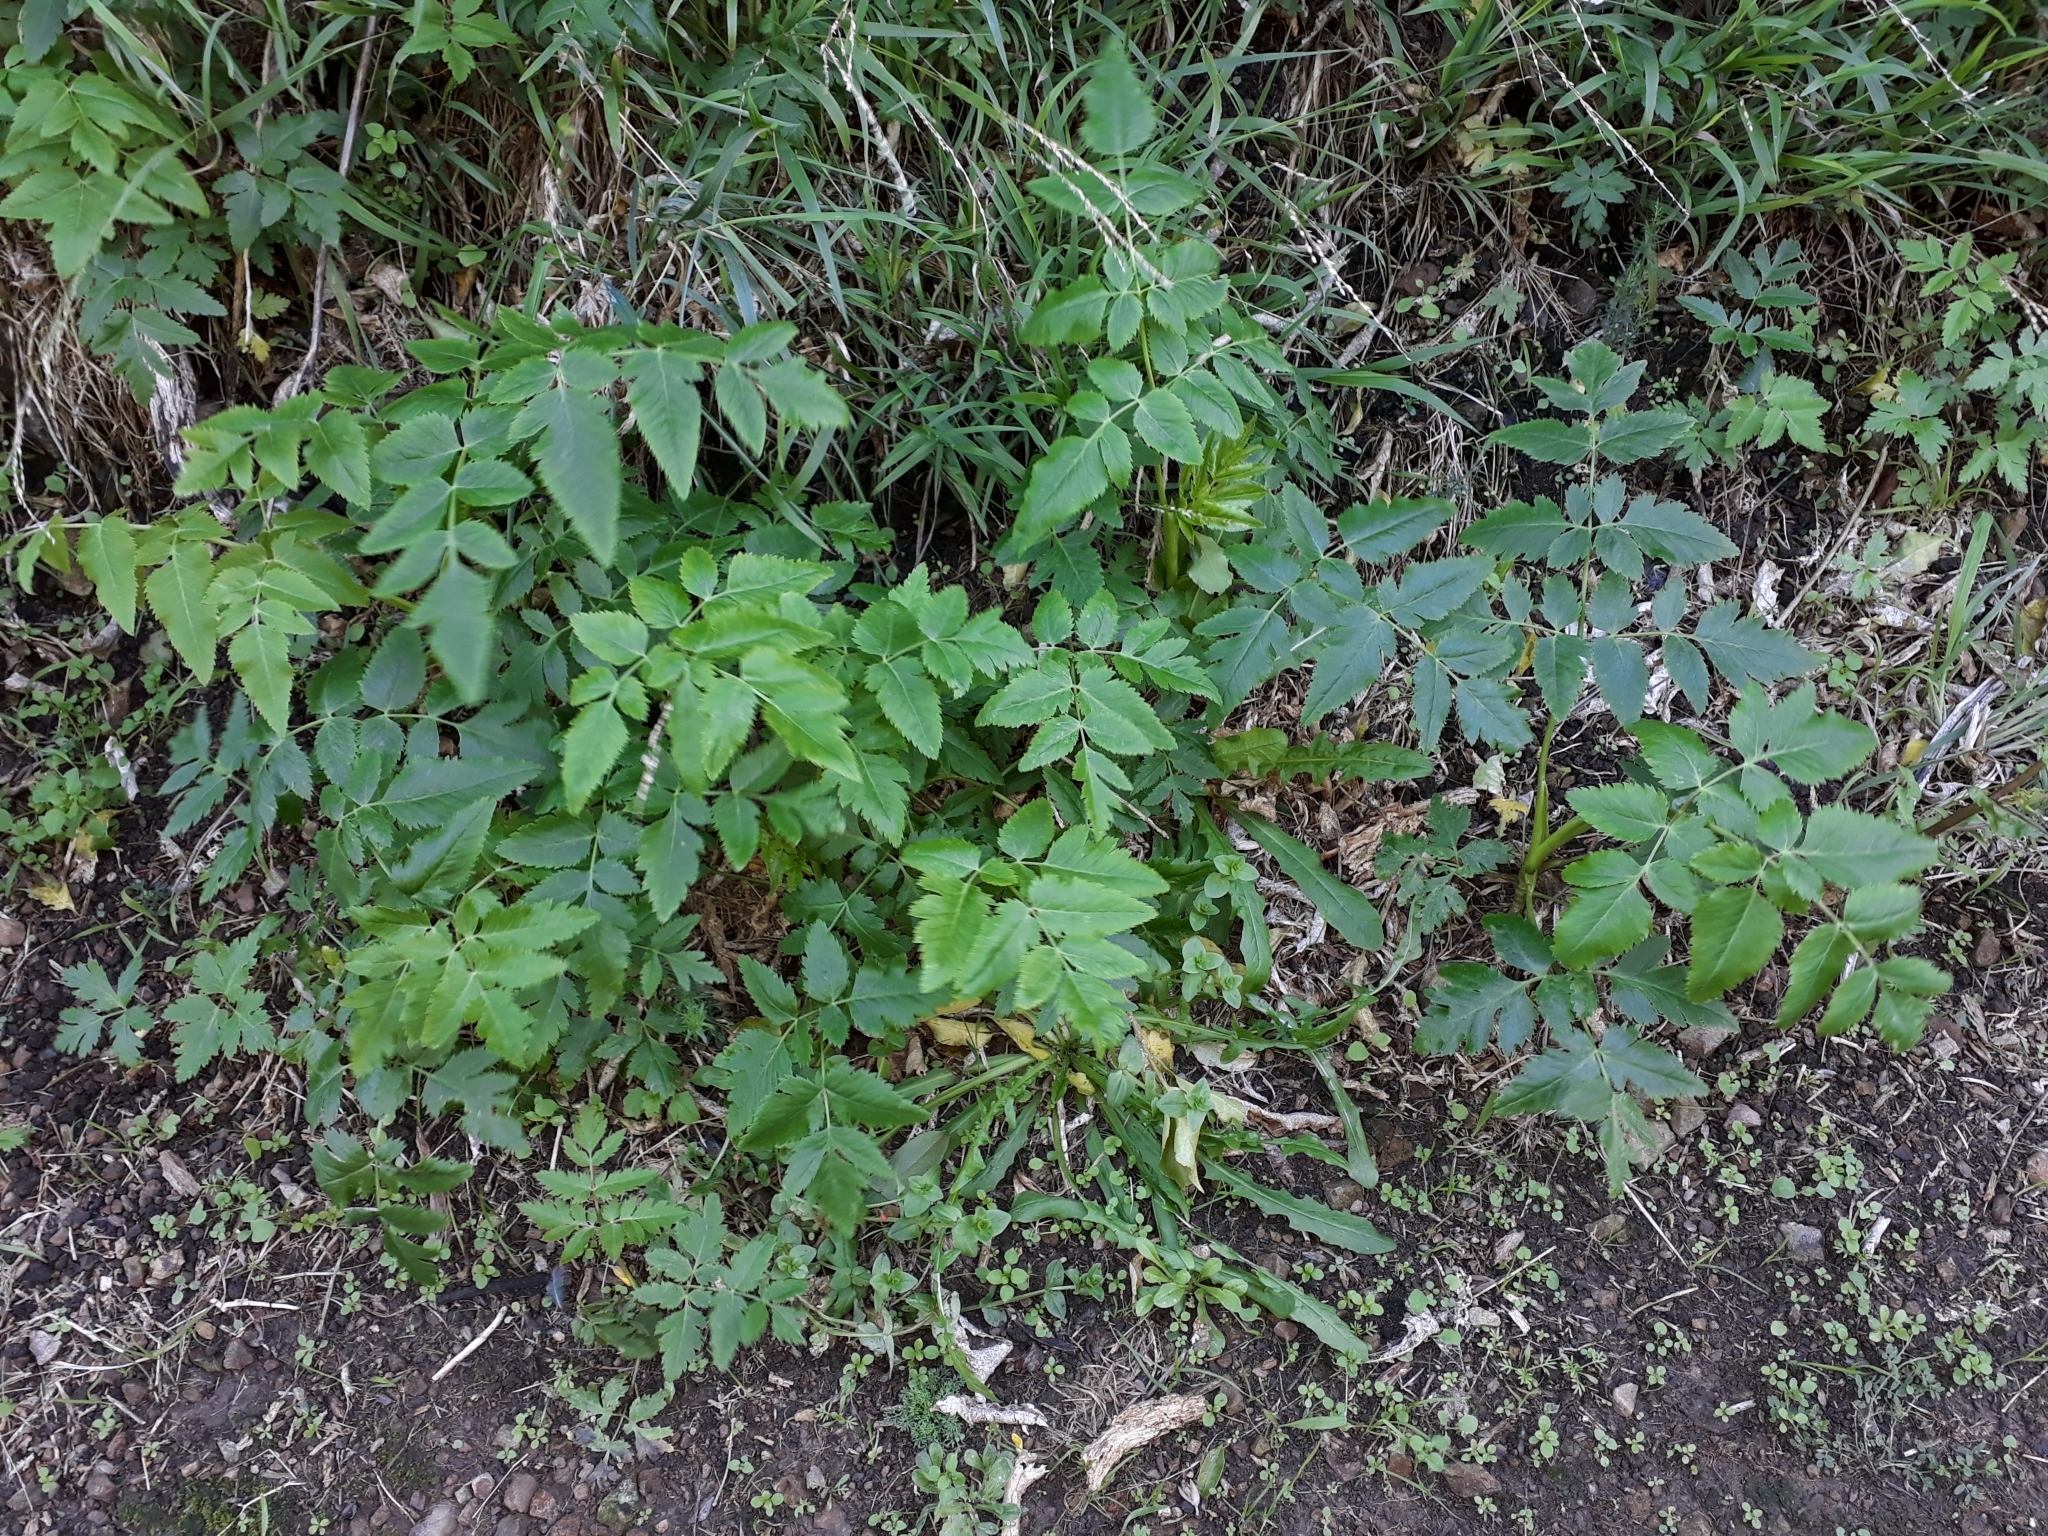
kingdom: Plantae
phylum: Tracheophyta
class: Magnoliopsida
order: Apiales
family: Apiaceae
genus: Daucus
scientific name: Daucus decipiens
